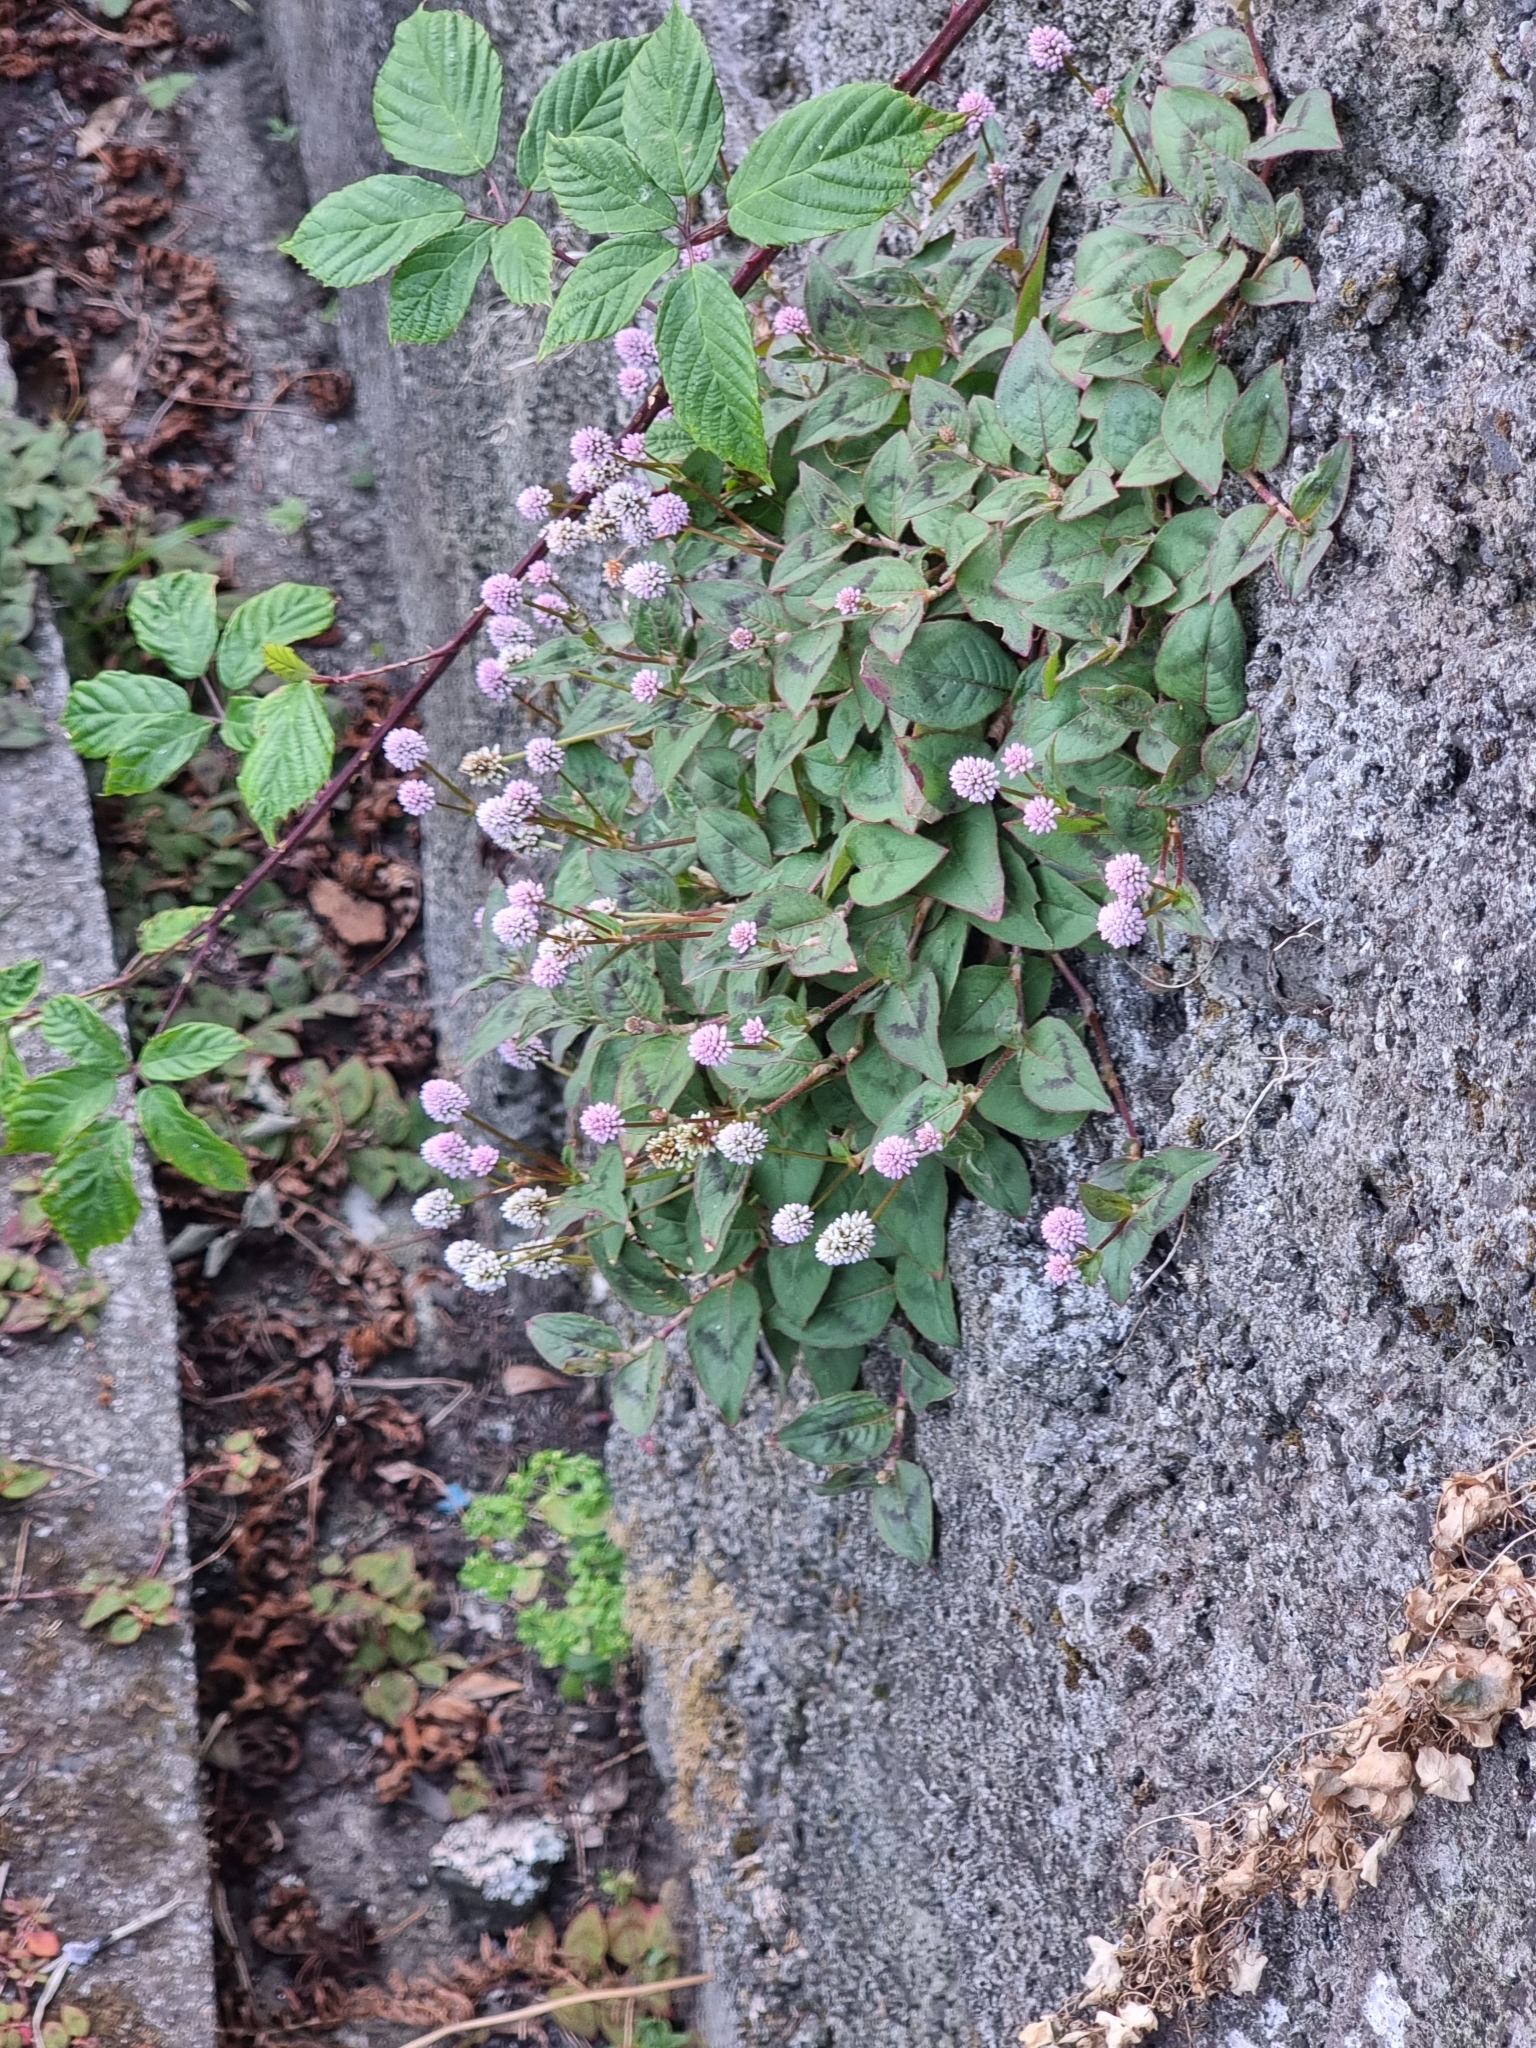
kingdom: Plantae
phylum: Tracheophyta
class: Magnoliopsida
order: Caryophyllales
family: Polygonaceae
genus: Persicaria
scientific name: Persicaria capitata
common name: Pinkhead smartweed
